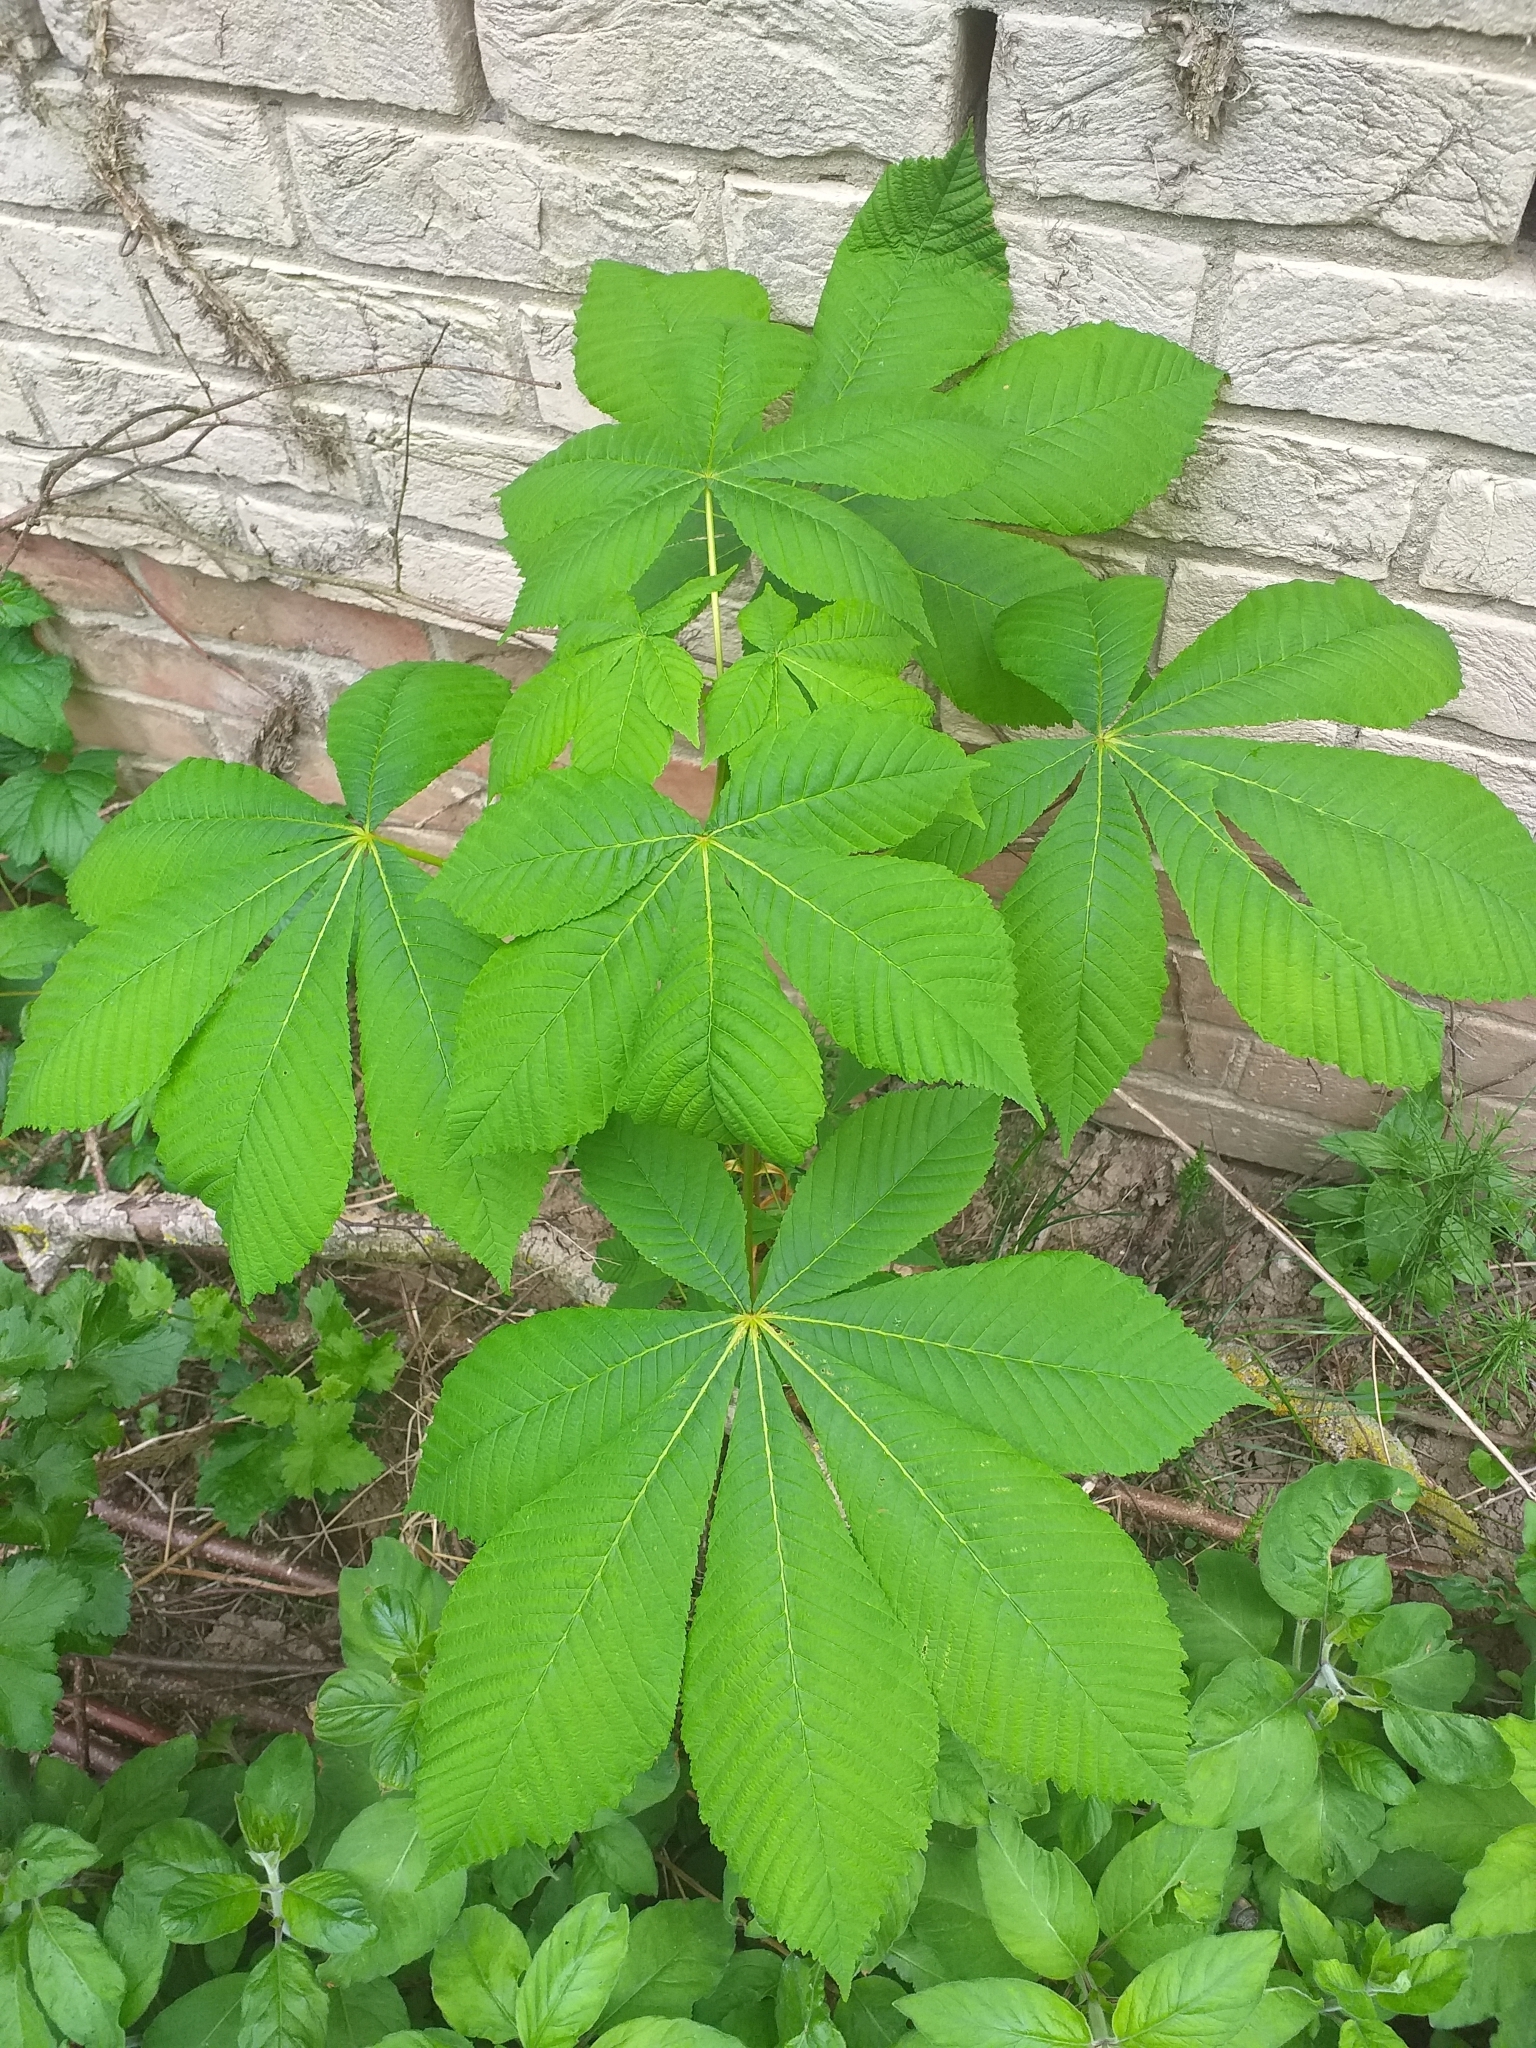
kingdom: Plantae
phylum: Tracheophyta
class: Magnoliopsida
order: Sapindales
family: Sapindaceae
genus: Aesculus
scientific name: Aesculus hippocastanum
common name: Horse-chestnut
